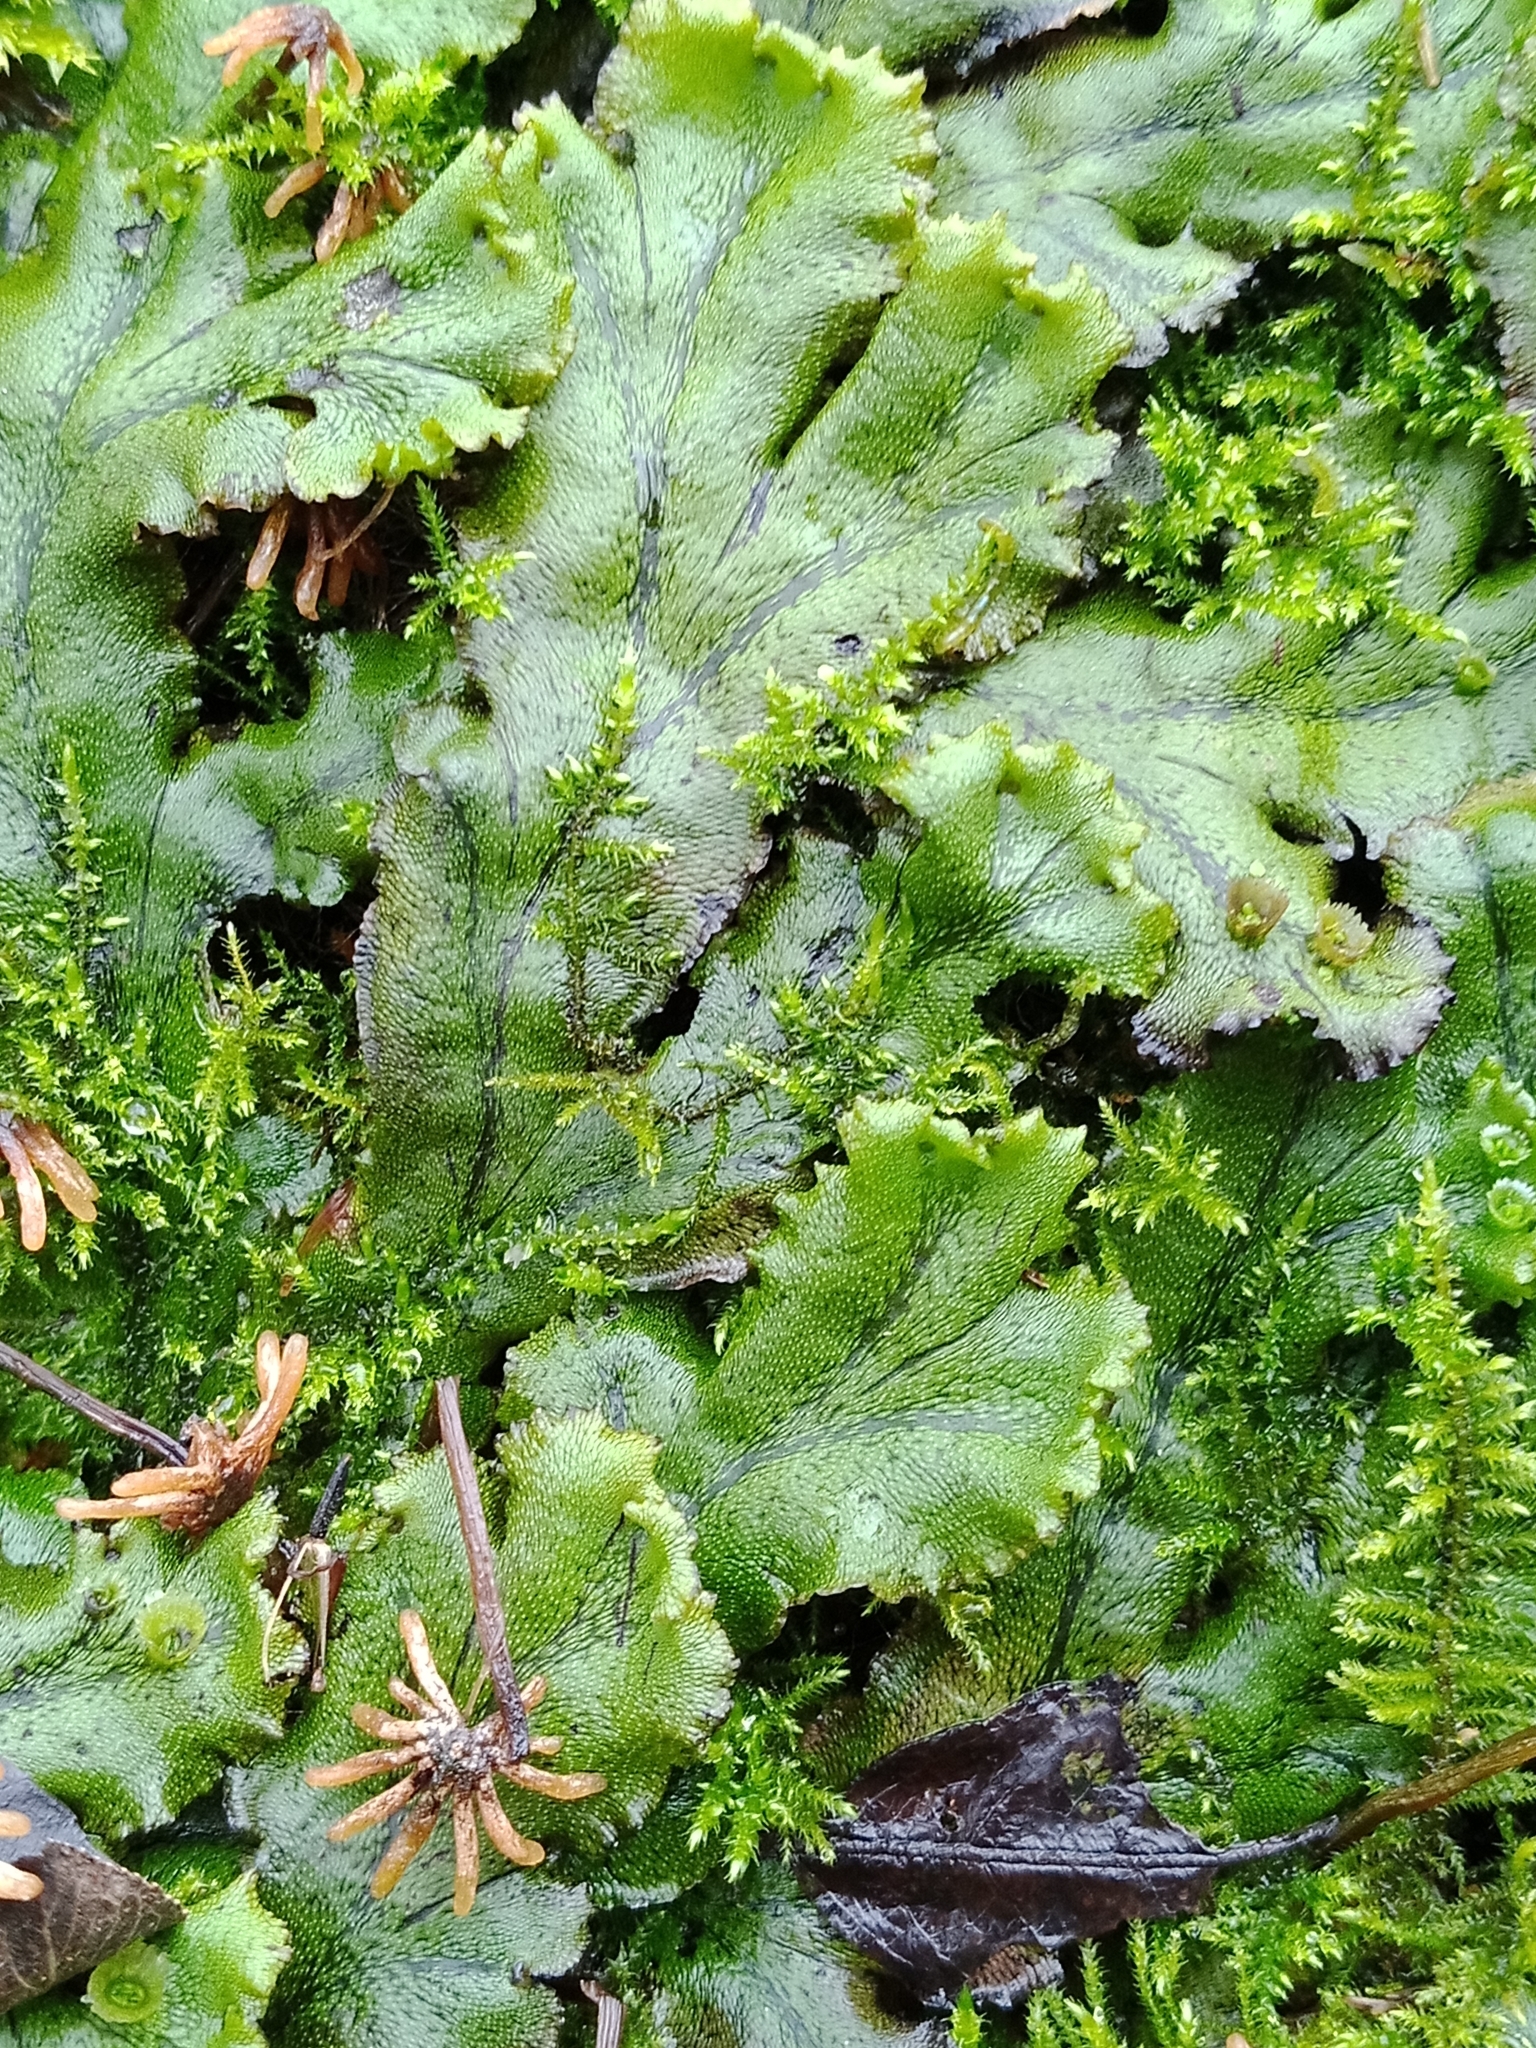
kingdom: Plantae
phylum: Marchantiophyta
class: Marchantiopsida
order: Marchantiales
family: Marchantiaceae
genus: Marchantia
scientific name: Marchantia polymorpha
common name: Common liverwort
